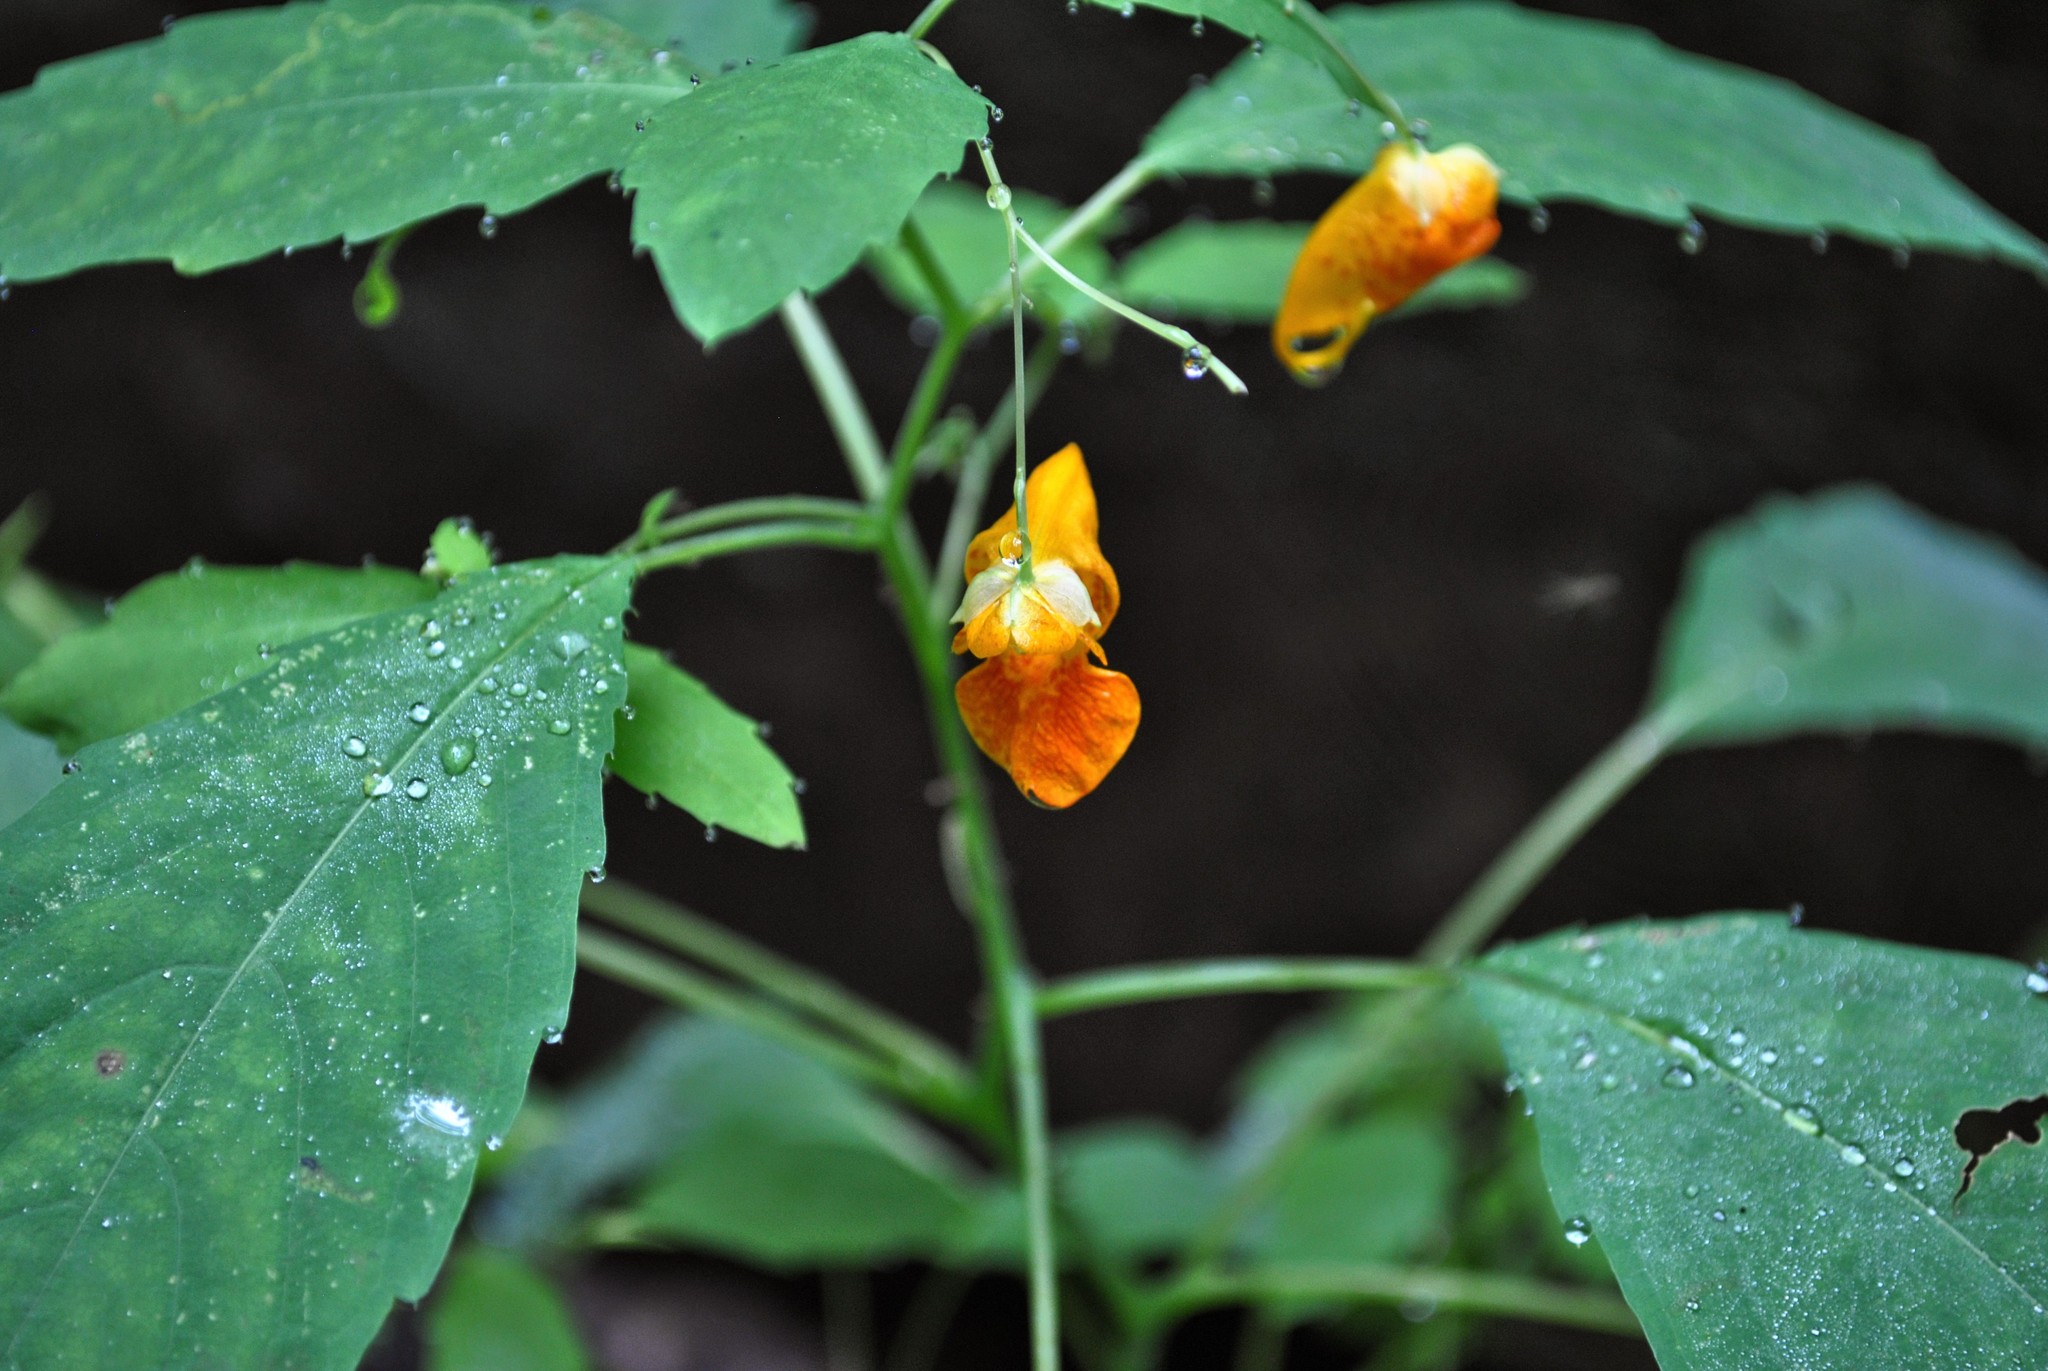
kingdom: Plantae
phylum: Tracheophyta
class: Magnoliopsida
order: Ericales
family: Balsaminaceae
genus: Impatiens
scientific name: Impatiens capensis
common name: Orange balsam
